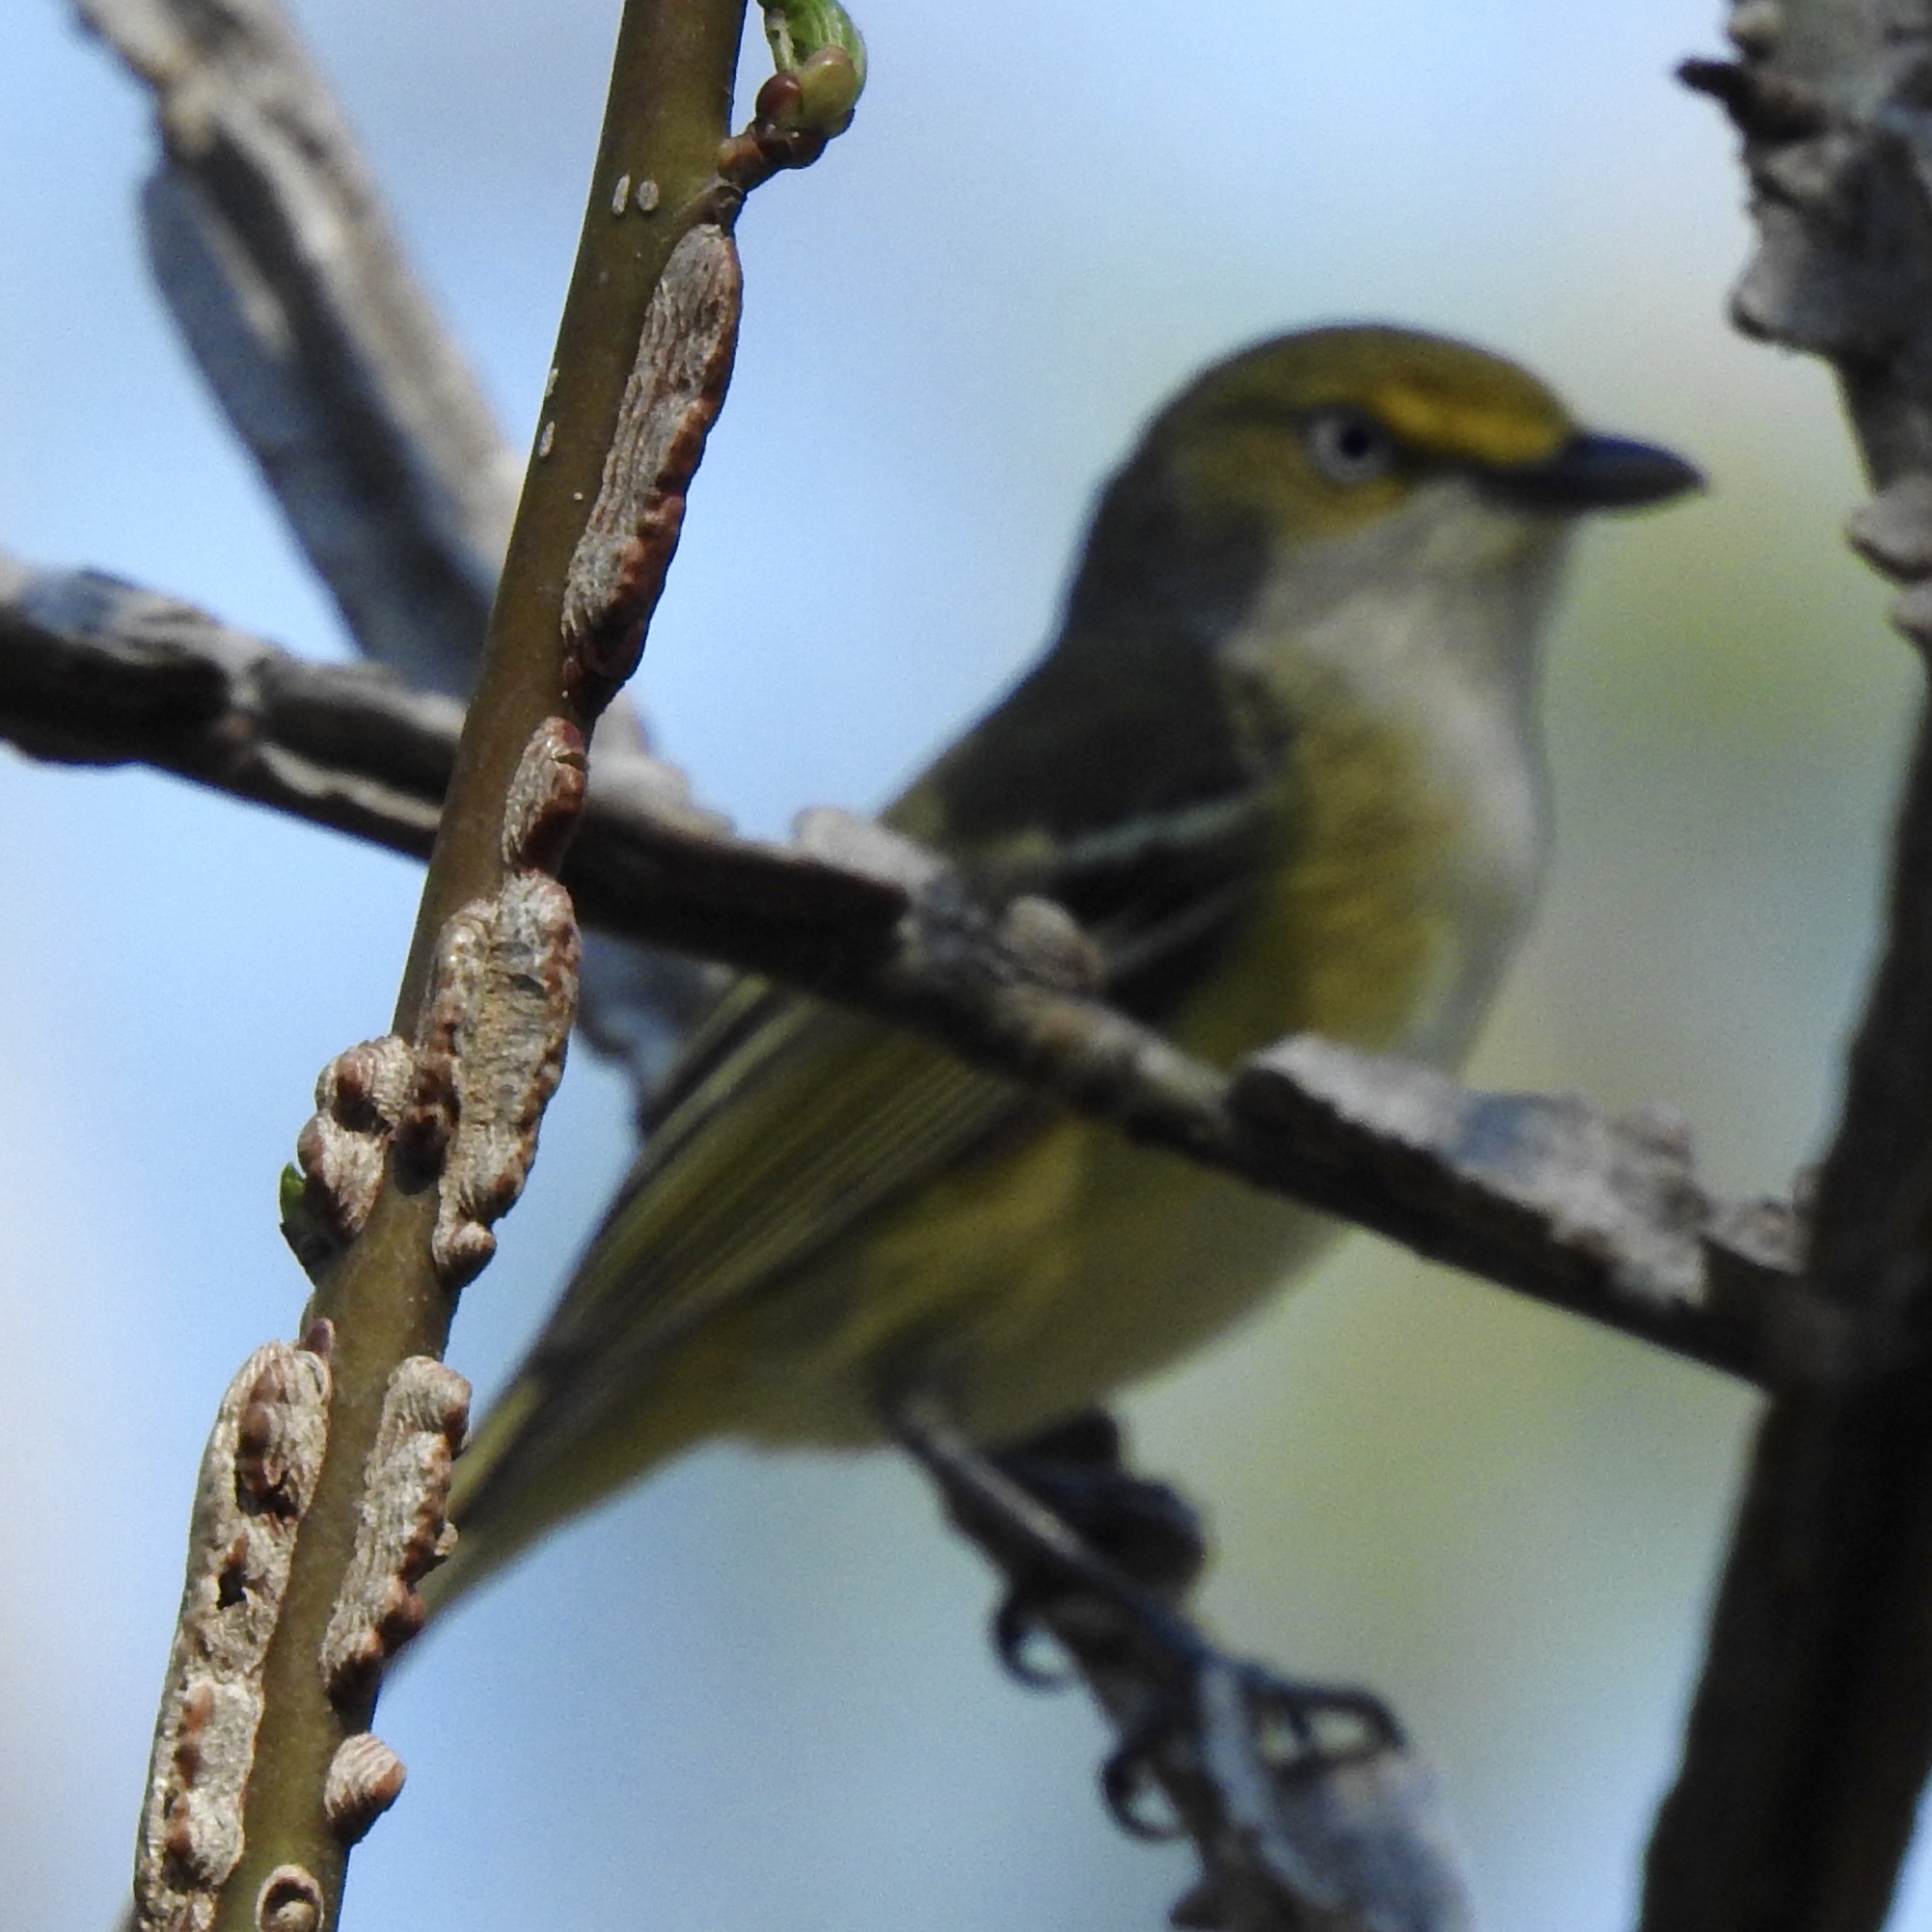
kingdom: Animalia
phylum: Chordata
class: Aves
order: Passeriformes
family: Vireonidae
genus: Vireo
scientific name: Vireo griseus
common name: White-eyed vireo
